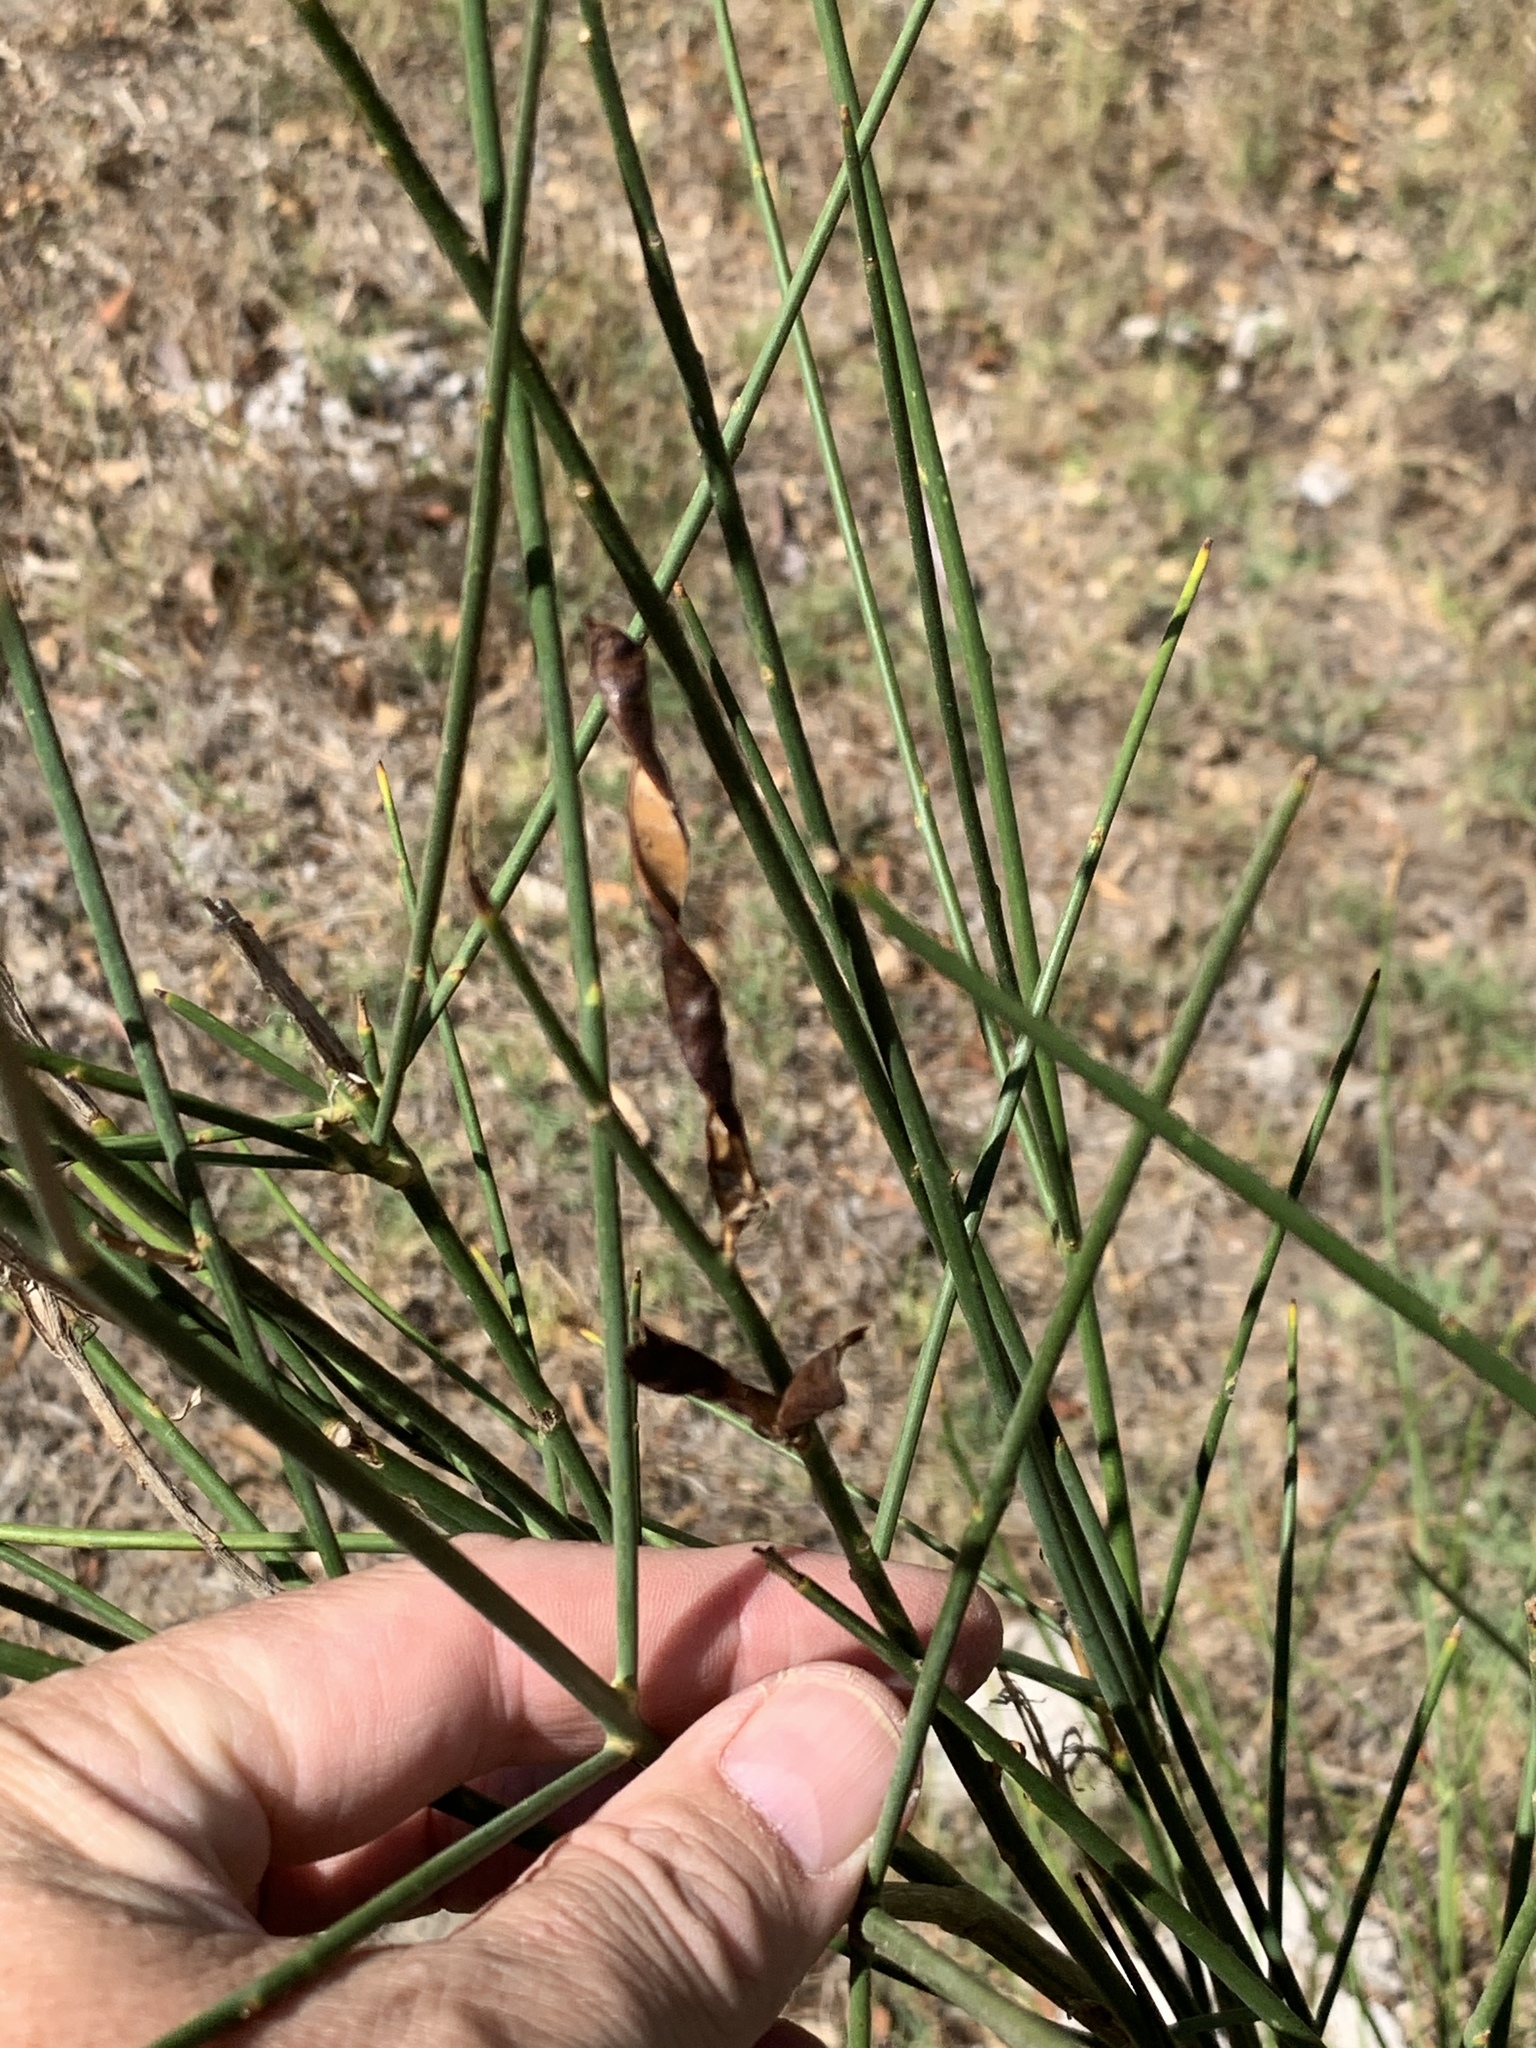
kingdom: Plantae
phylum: Tracheophyta
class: Magnoliopsida
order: Fabales
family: Fabaceae
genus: Spartium
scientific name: Spartium junceum
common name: Spanish broom
